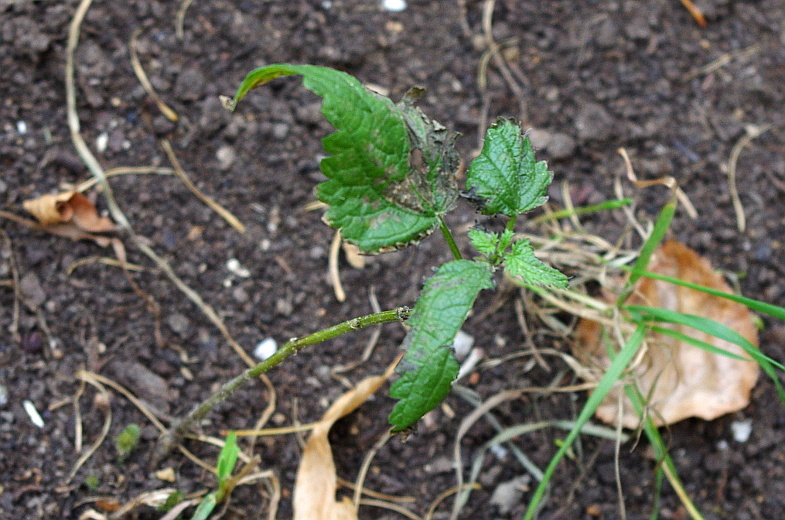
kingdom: Plantae
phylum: Tracheophyta
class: Magnoliopsida
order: Rosales
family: Urticaceae
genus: Urtica
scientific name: Urtica dioica
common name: Common nettle
